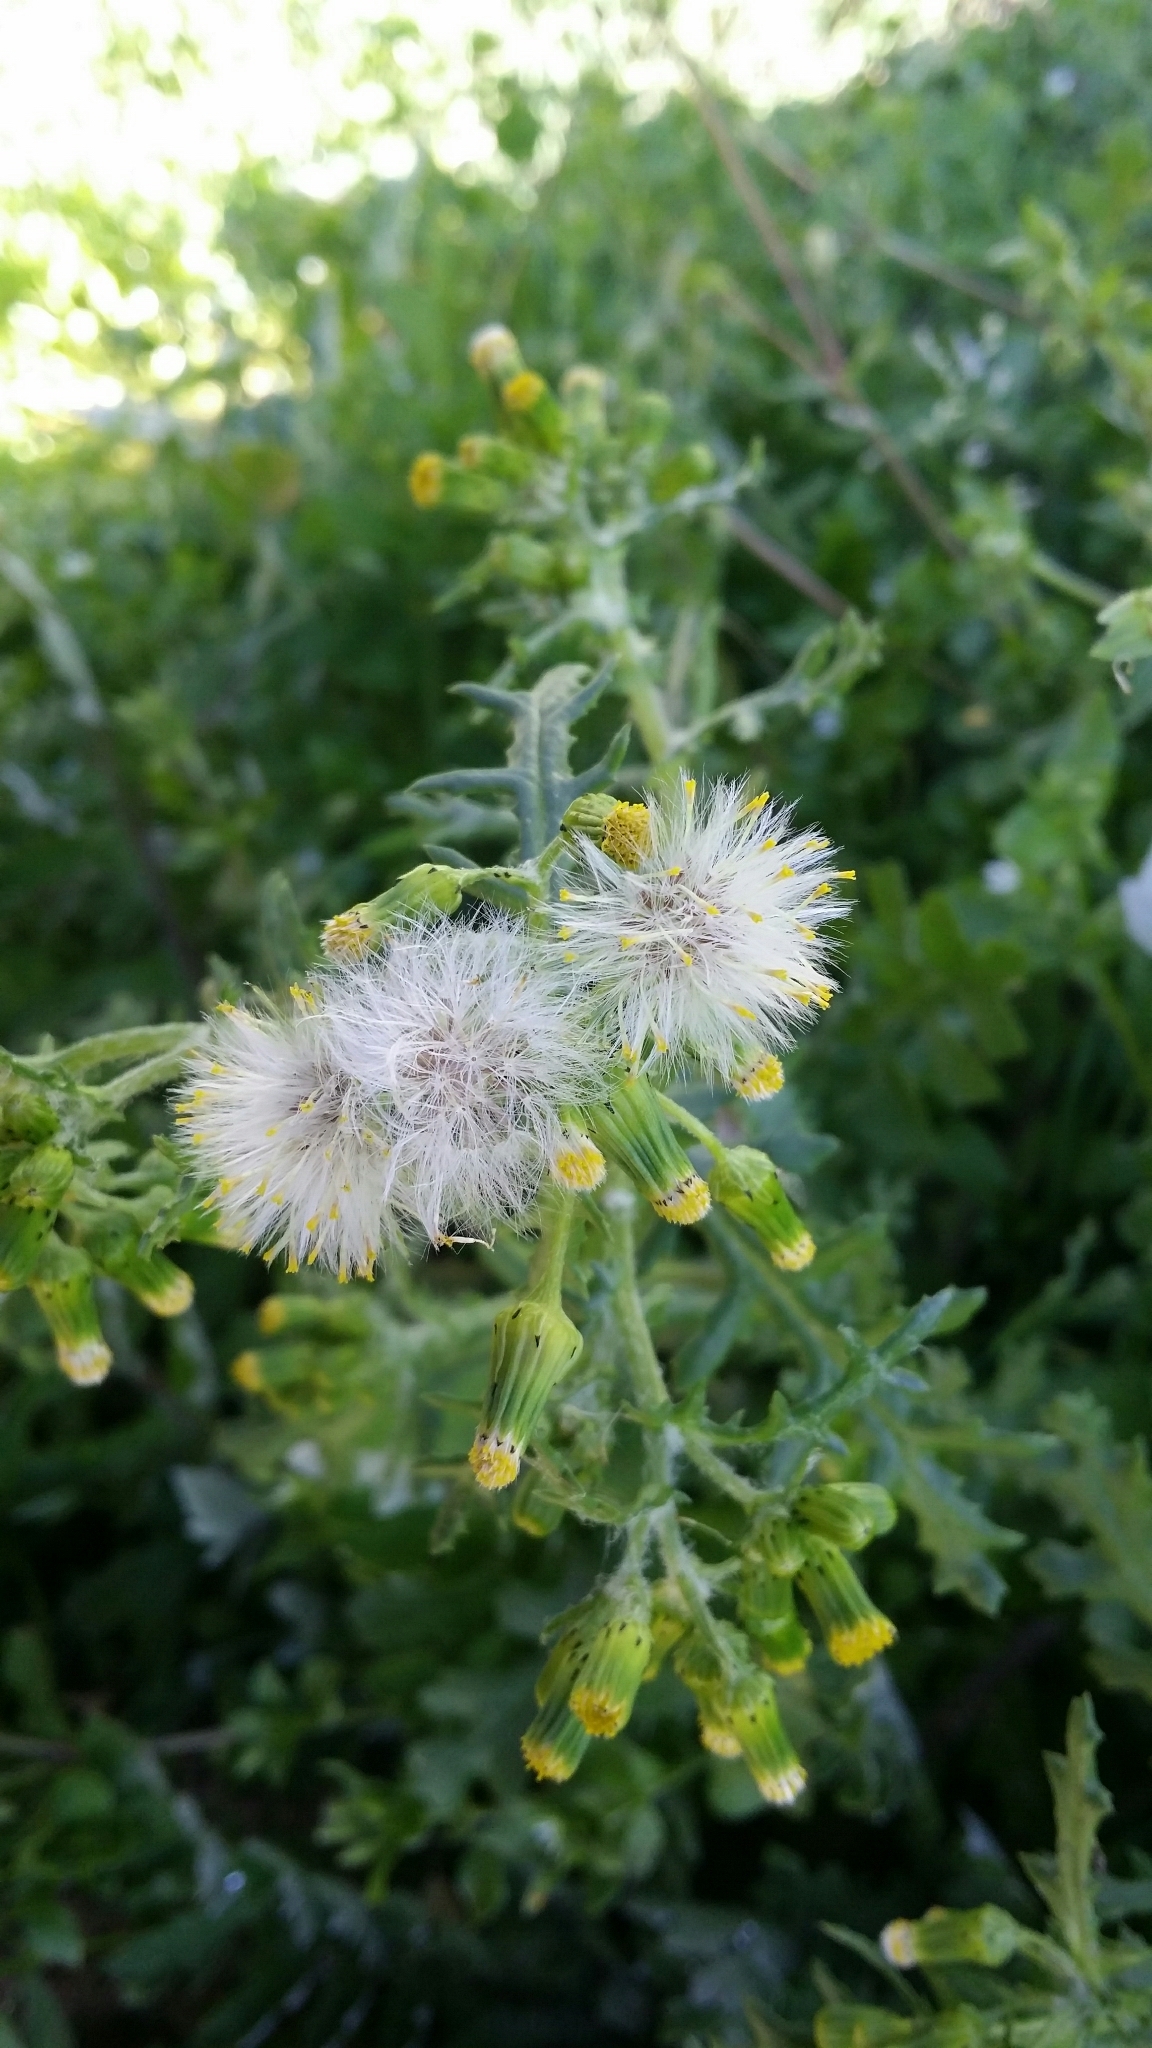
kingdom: Plantae
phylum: Tracheophyta
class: Magnoliopsida
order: Asterales
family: Asteraceae
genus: Senecio
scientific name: Senecio vulgaris
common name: Old-man-in-the-spring
